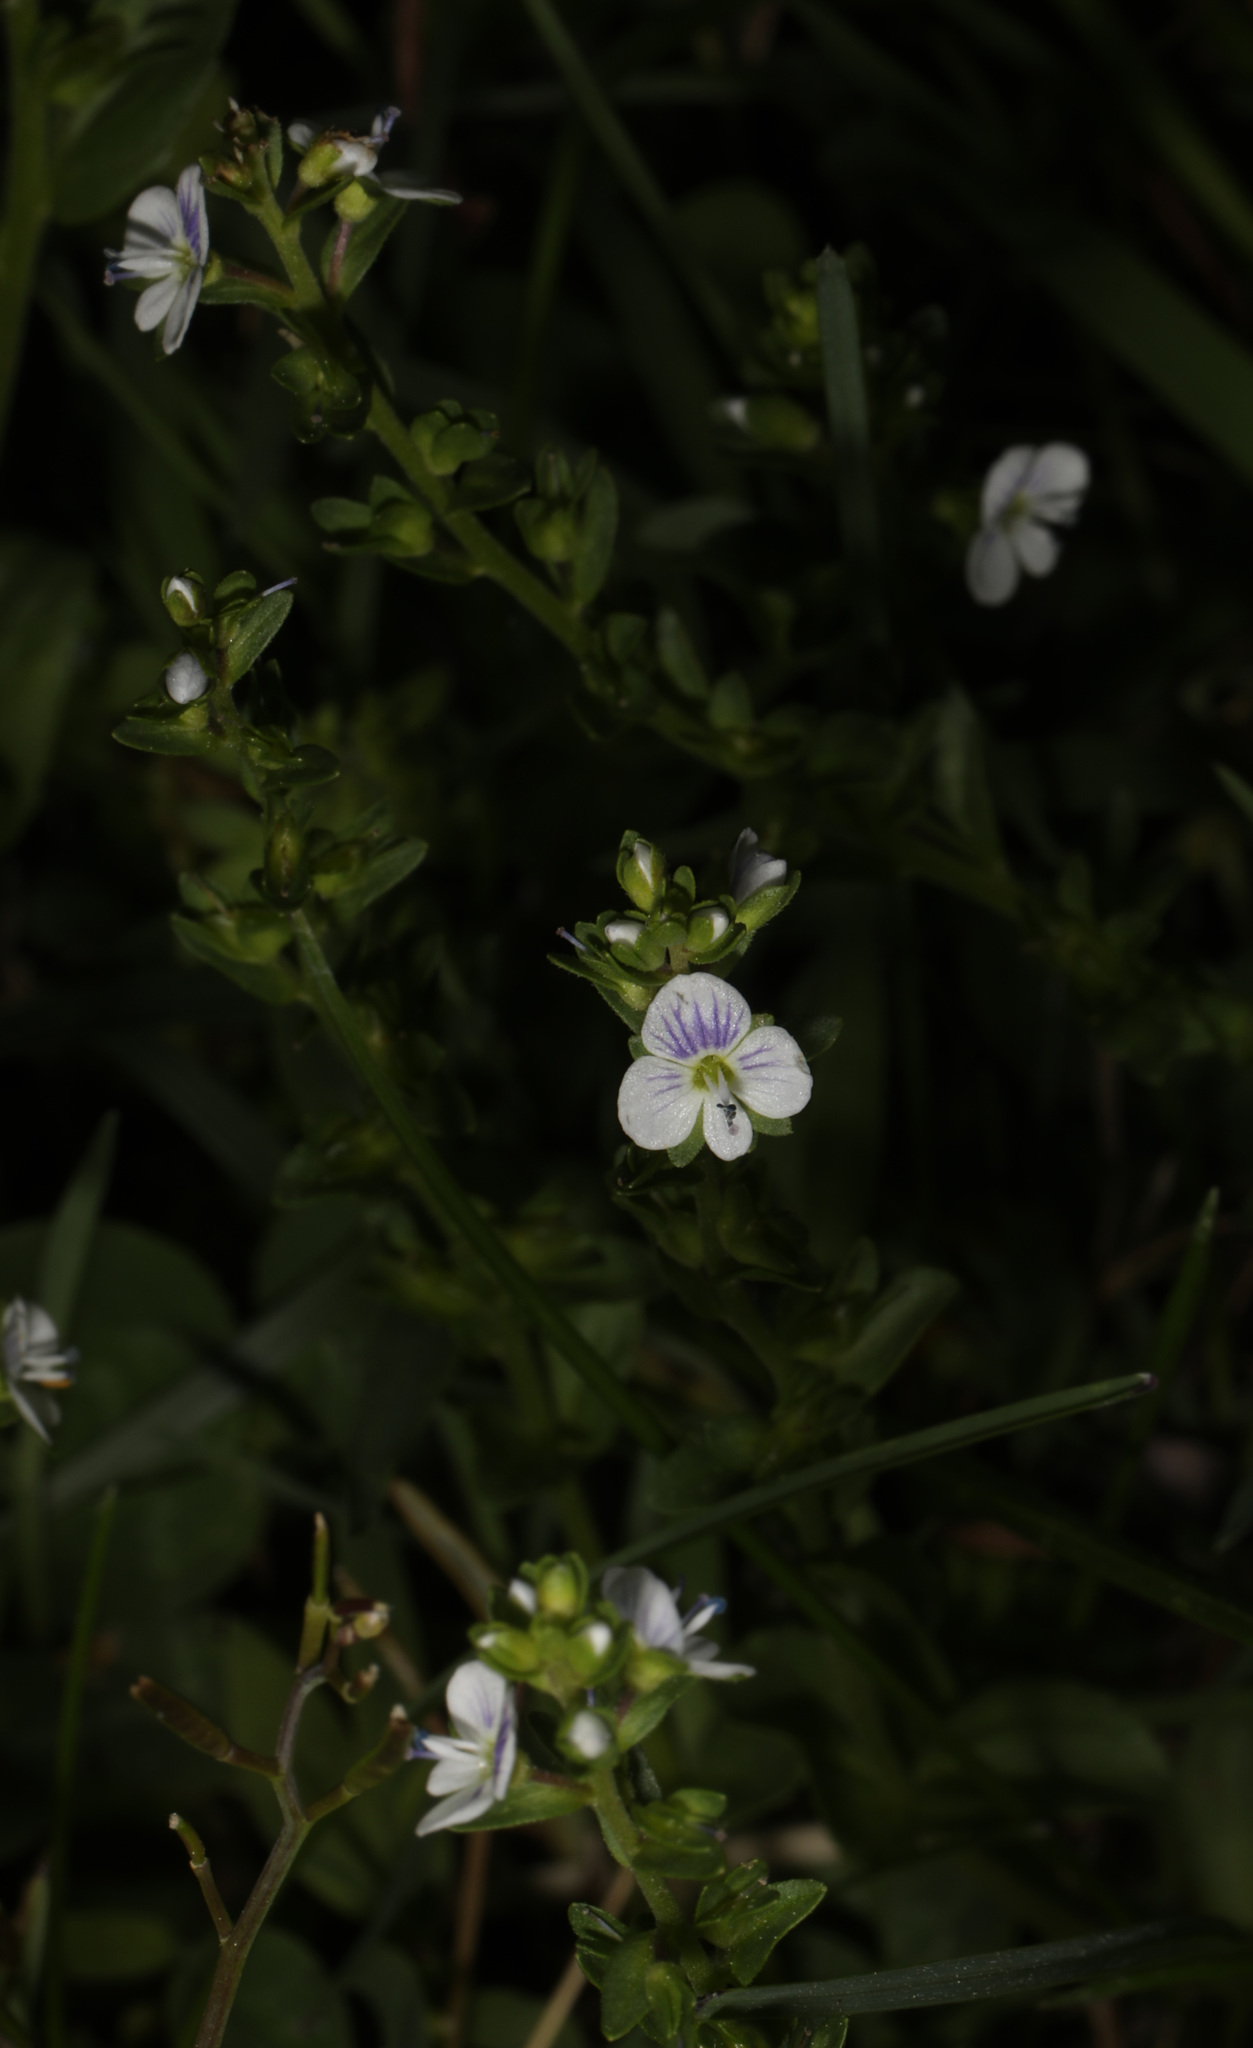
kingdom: Plantae
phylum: Tracheophyta
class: Magnoliopsida
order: Lamiales
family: Plantaginaceae
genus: Veronica
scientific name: Veronica serpyllifolia
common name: Thyme-leaved speedwell
